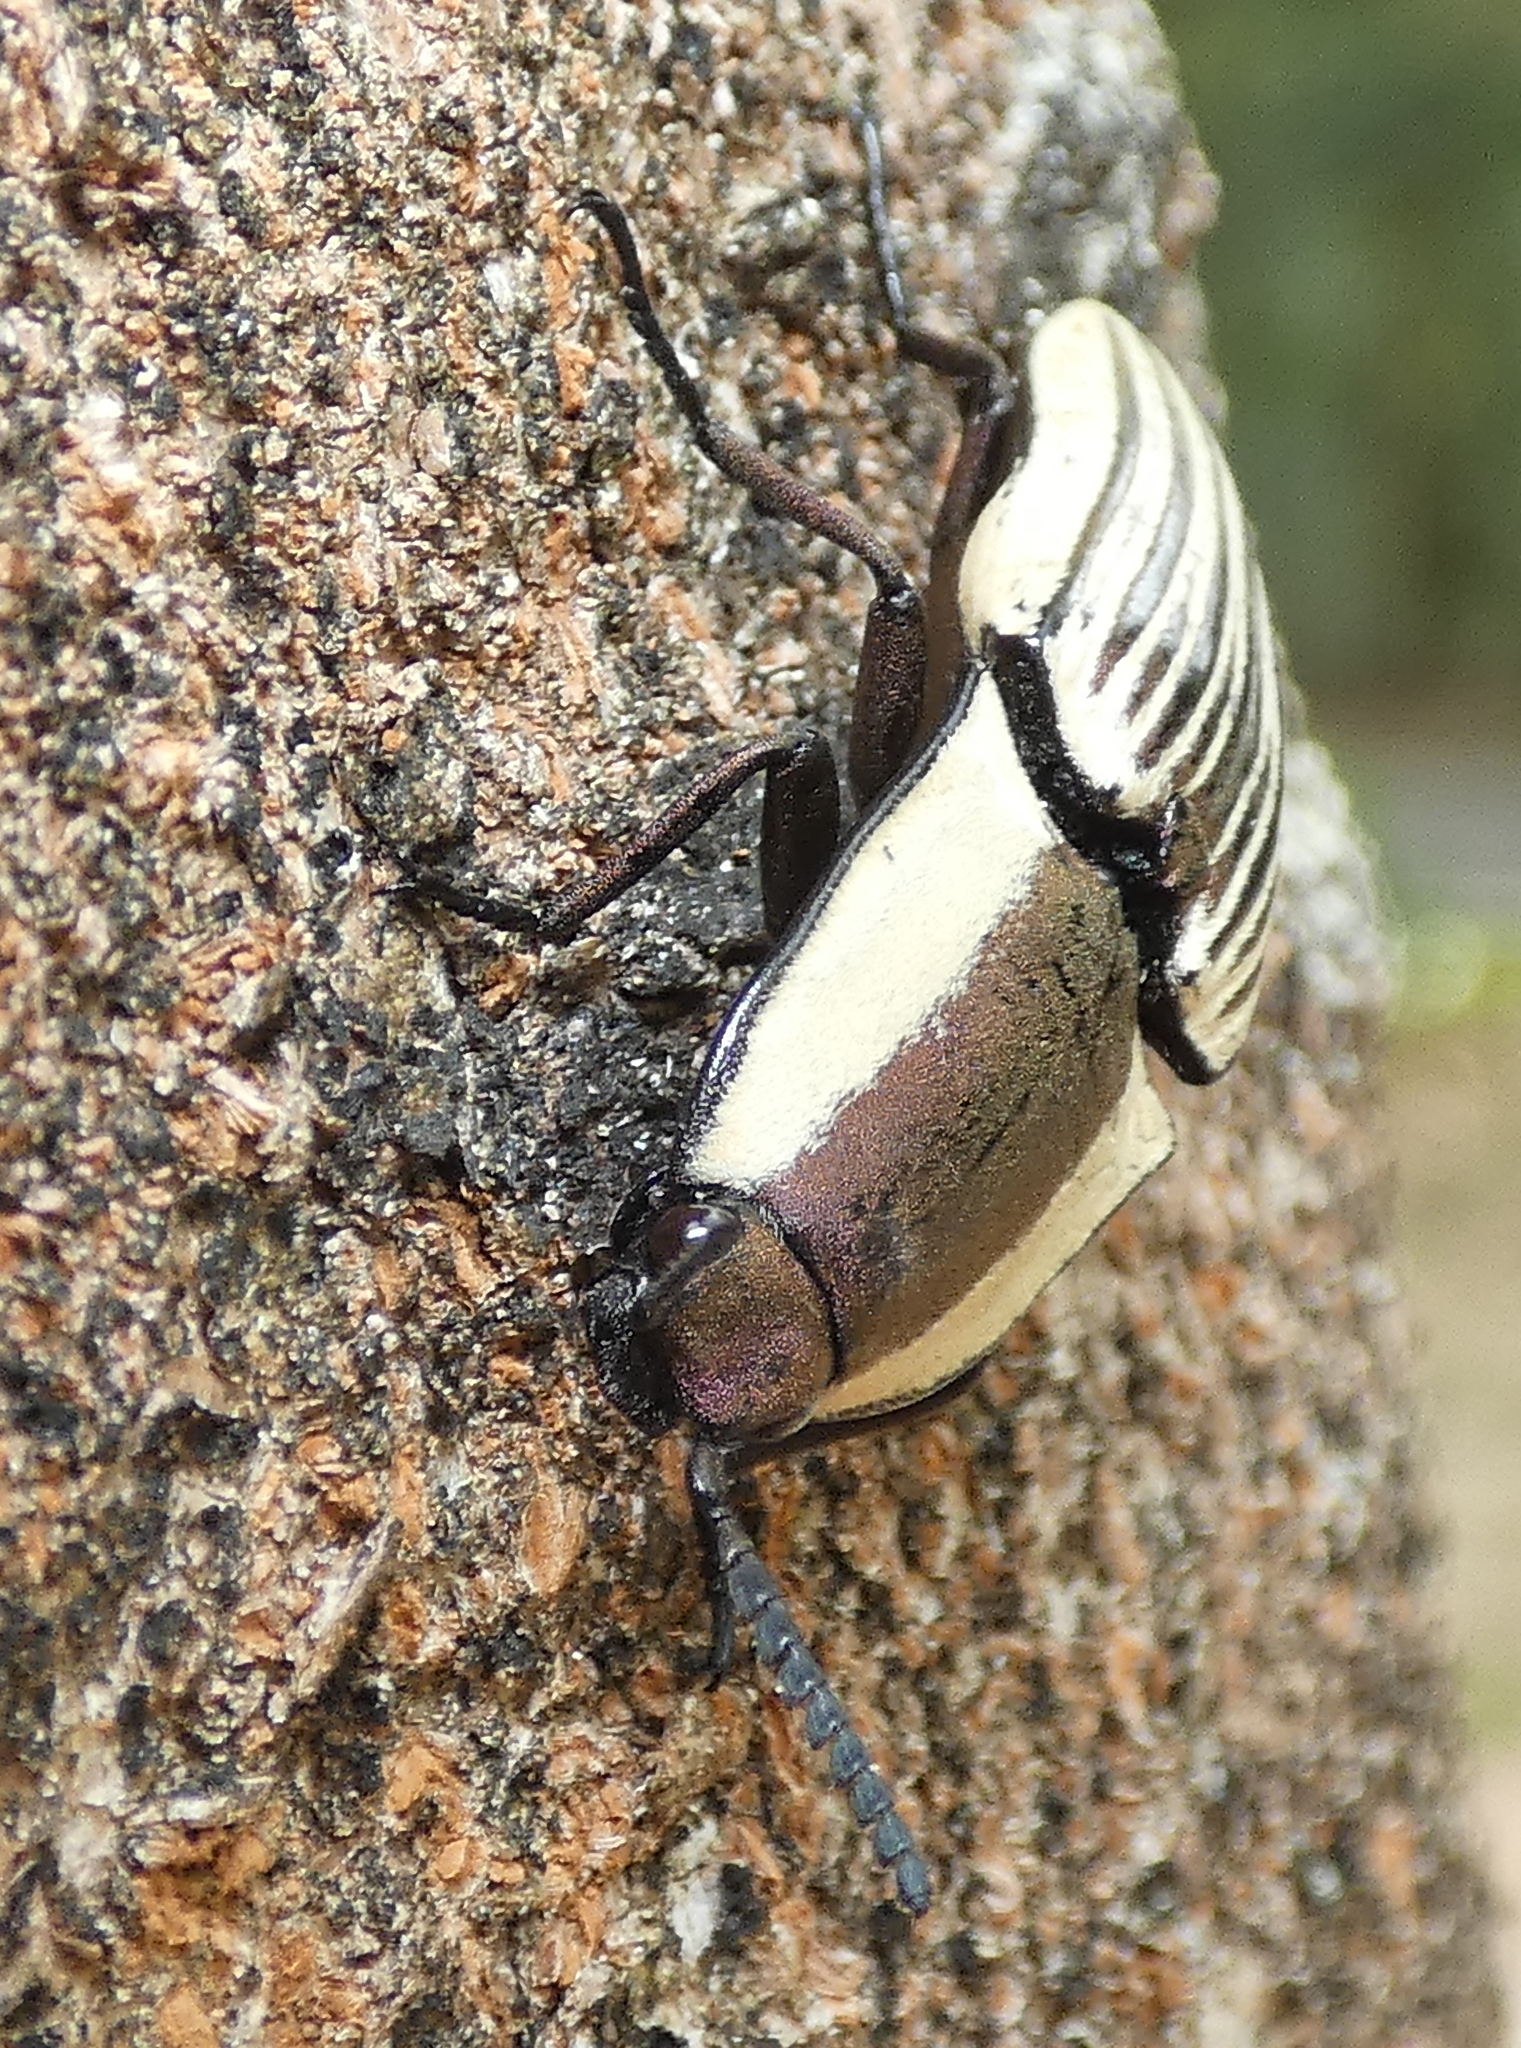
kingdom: Animalia
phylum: Arthropoda
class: Insecta
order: Coleoptera
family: Elateridae
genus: Chalcolepidius
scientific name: Chalcolepidius zonatus
